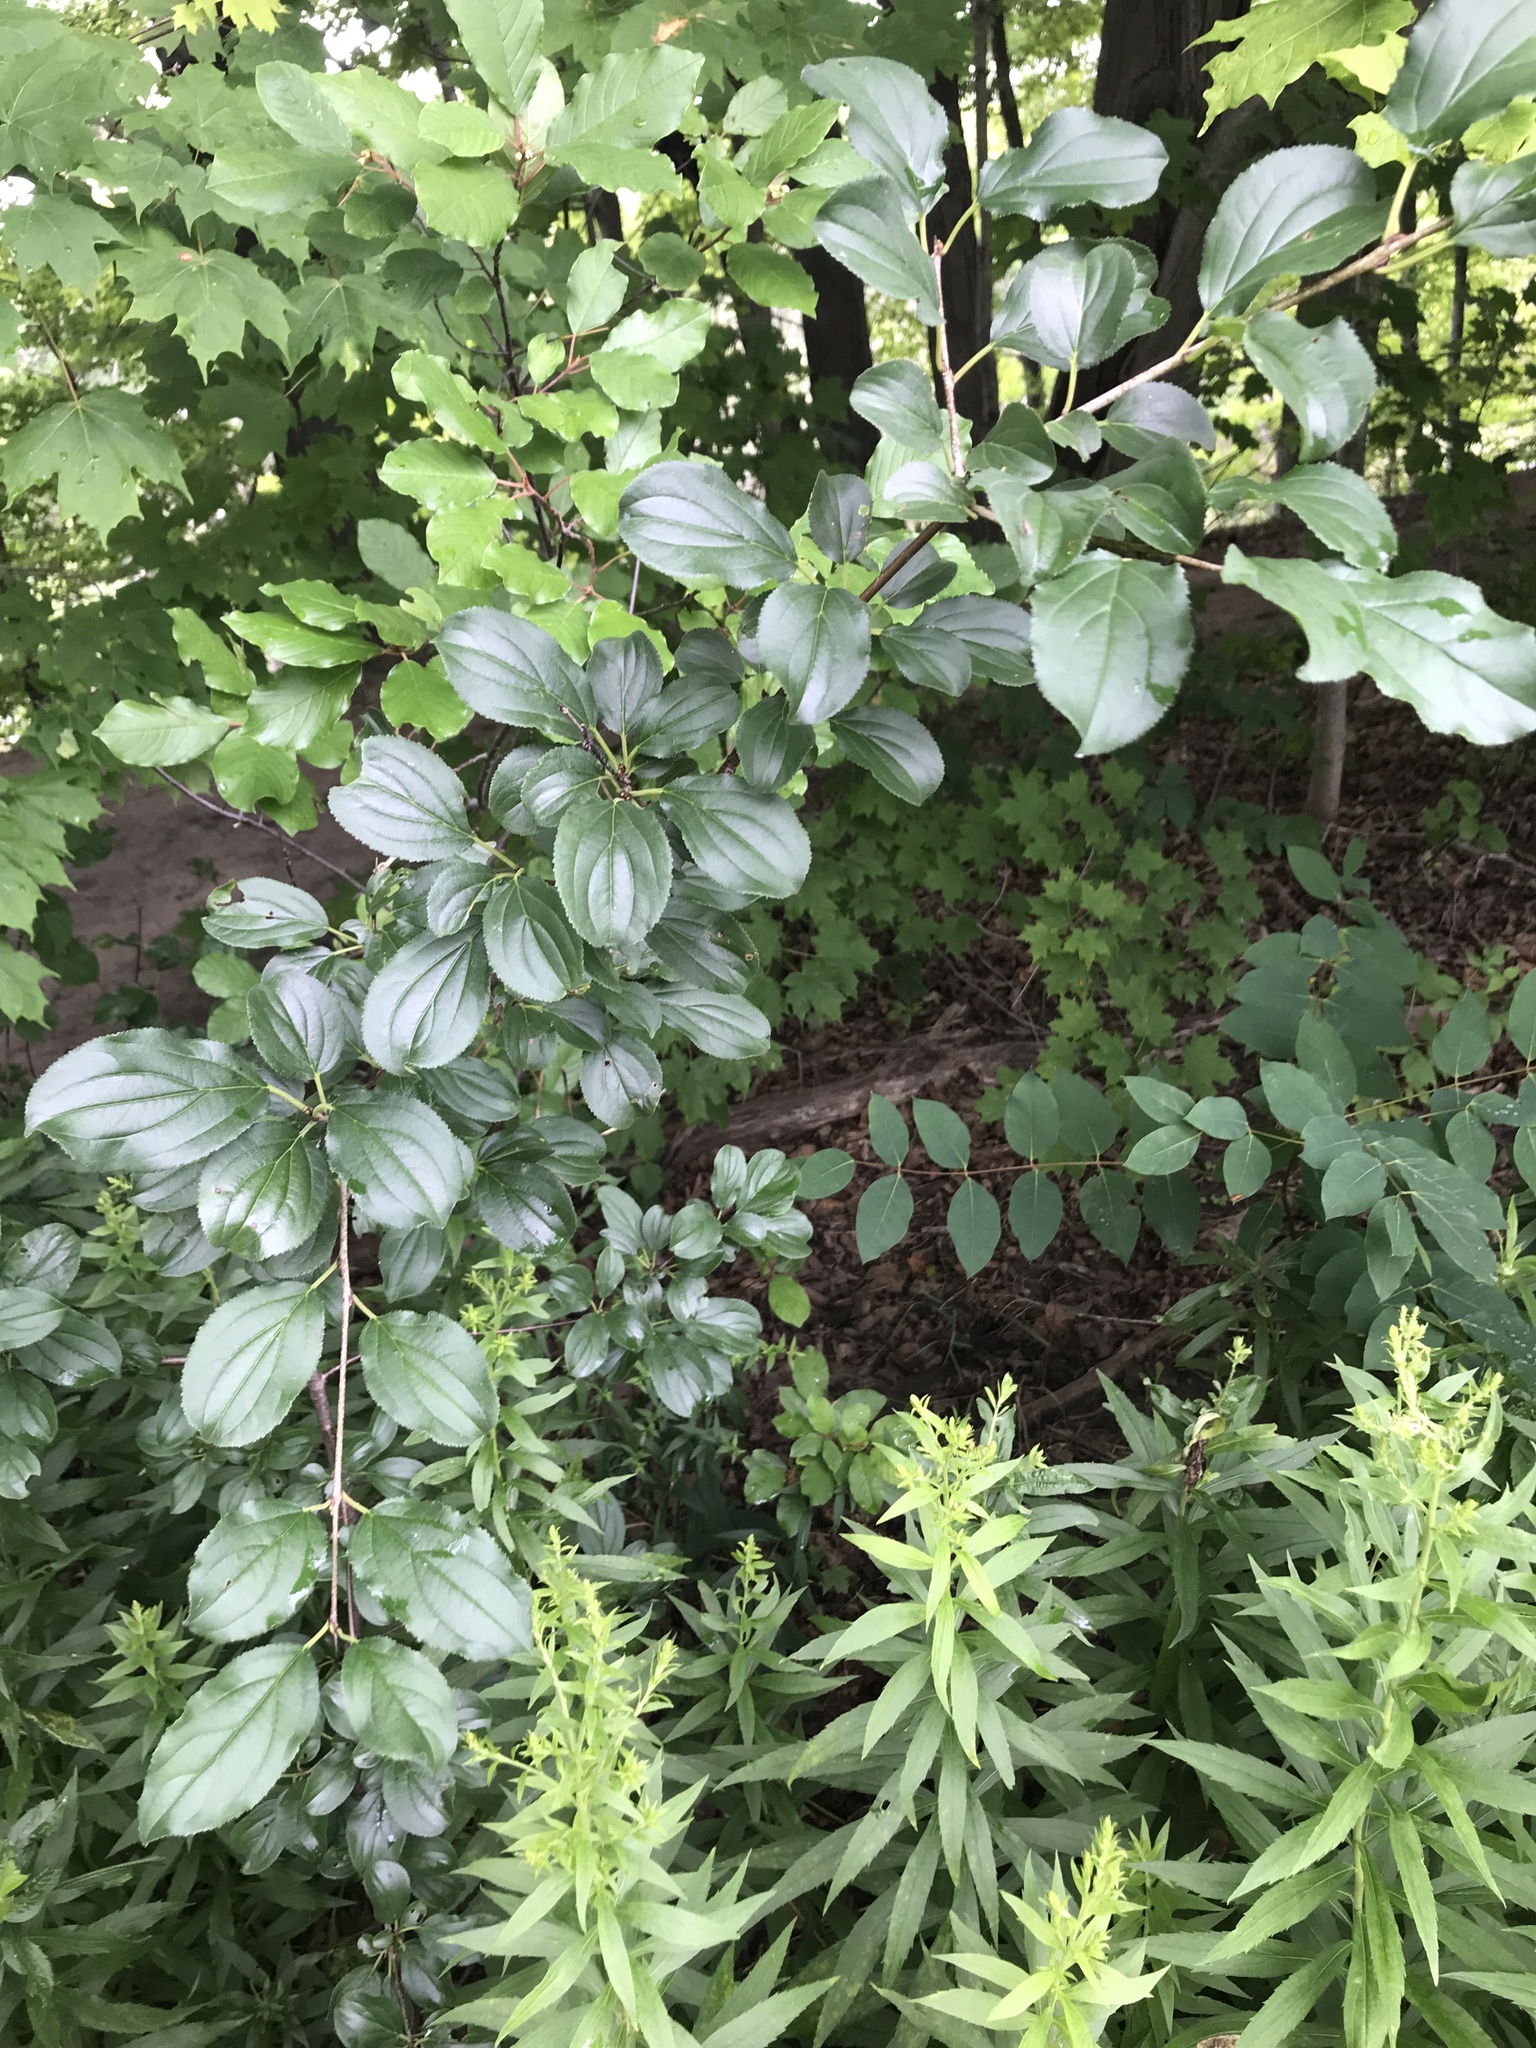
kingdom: Plantae
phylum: Tracheophyta
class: Magnoliopsida
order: Rosales
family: Rhamnaceae
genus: Rhamnus
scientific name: Rhamnus cathartica
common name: Common buckthorn
